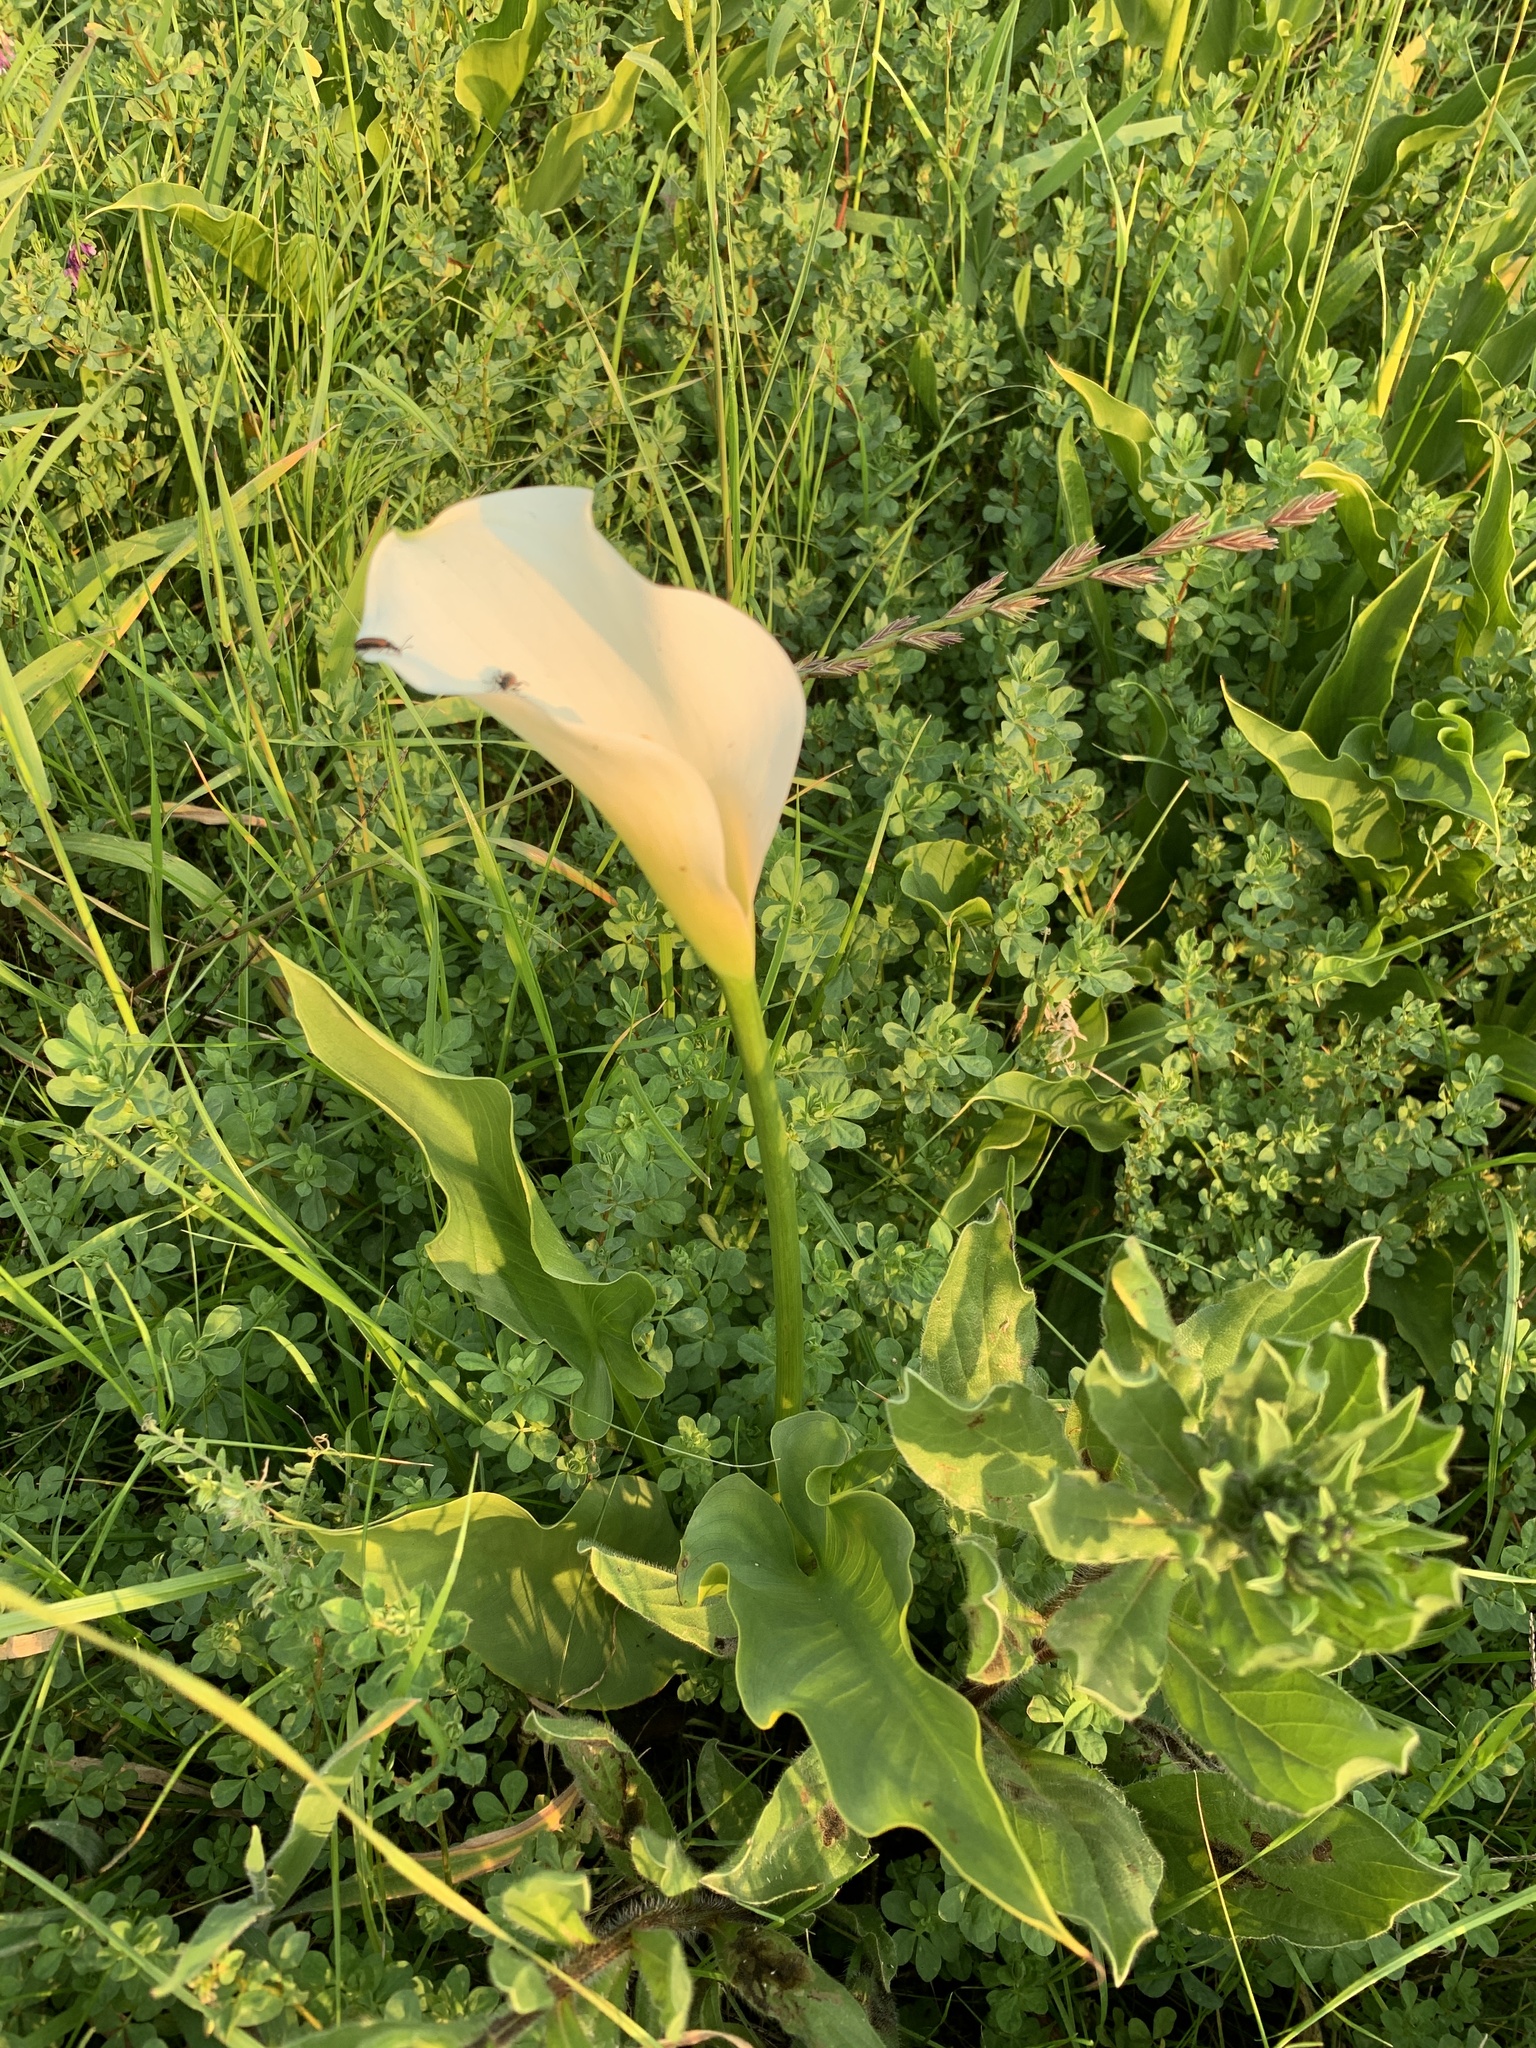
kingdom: Plantae
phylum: Tracheophyta
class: Liliopsida
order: Alismatales
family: Araceae
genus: Zantedeschia
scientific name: Zantedeschia aethiopica
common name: Altar-lily
